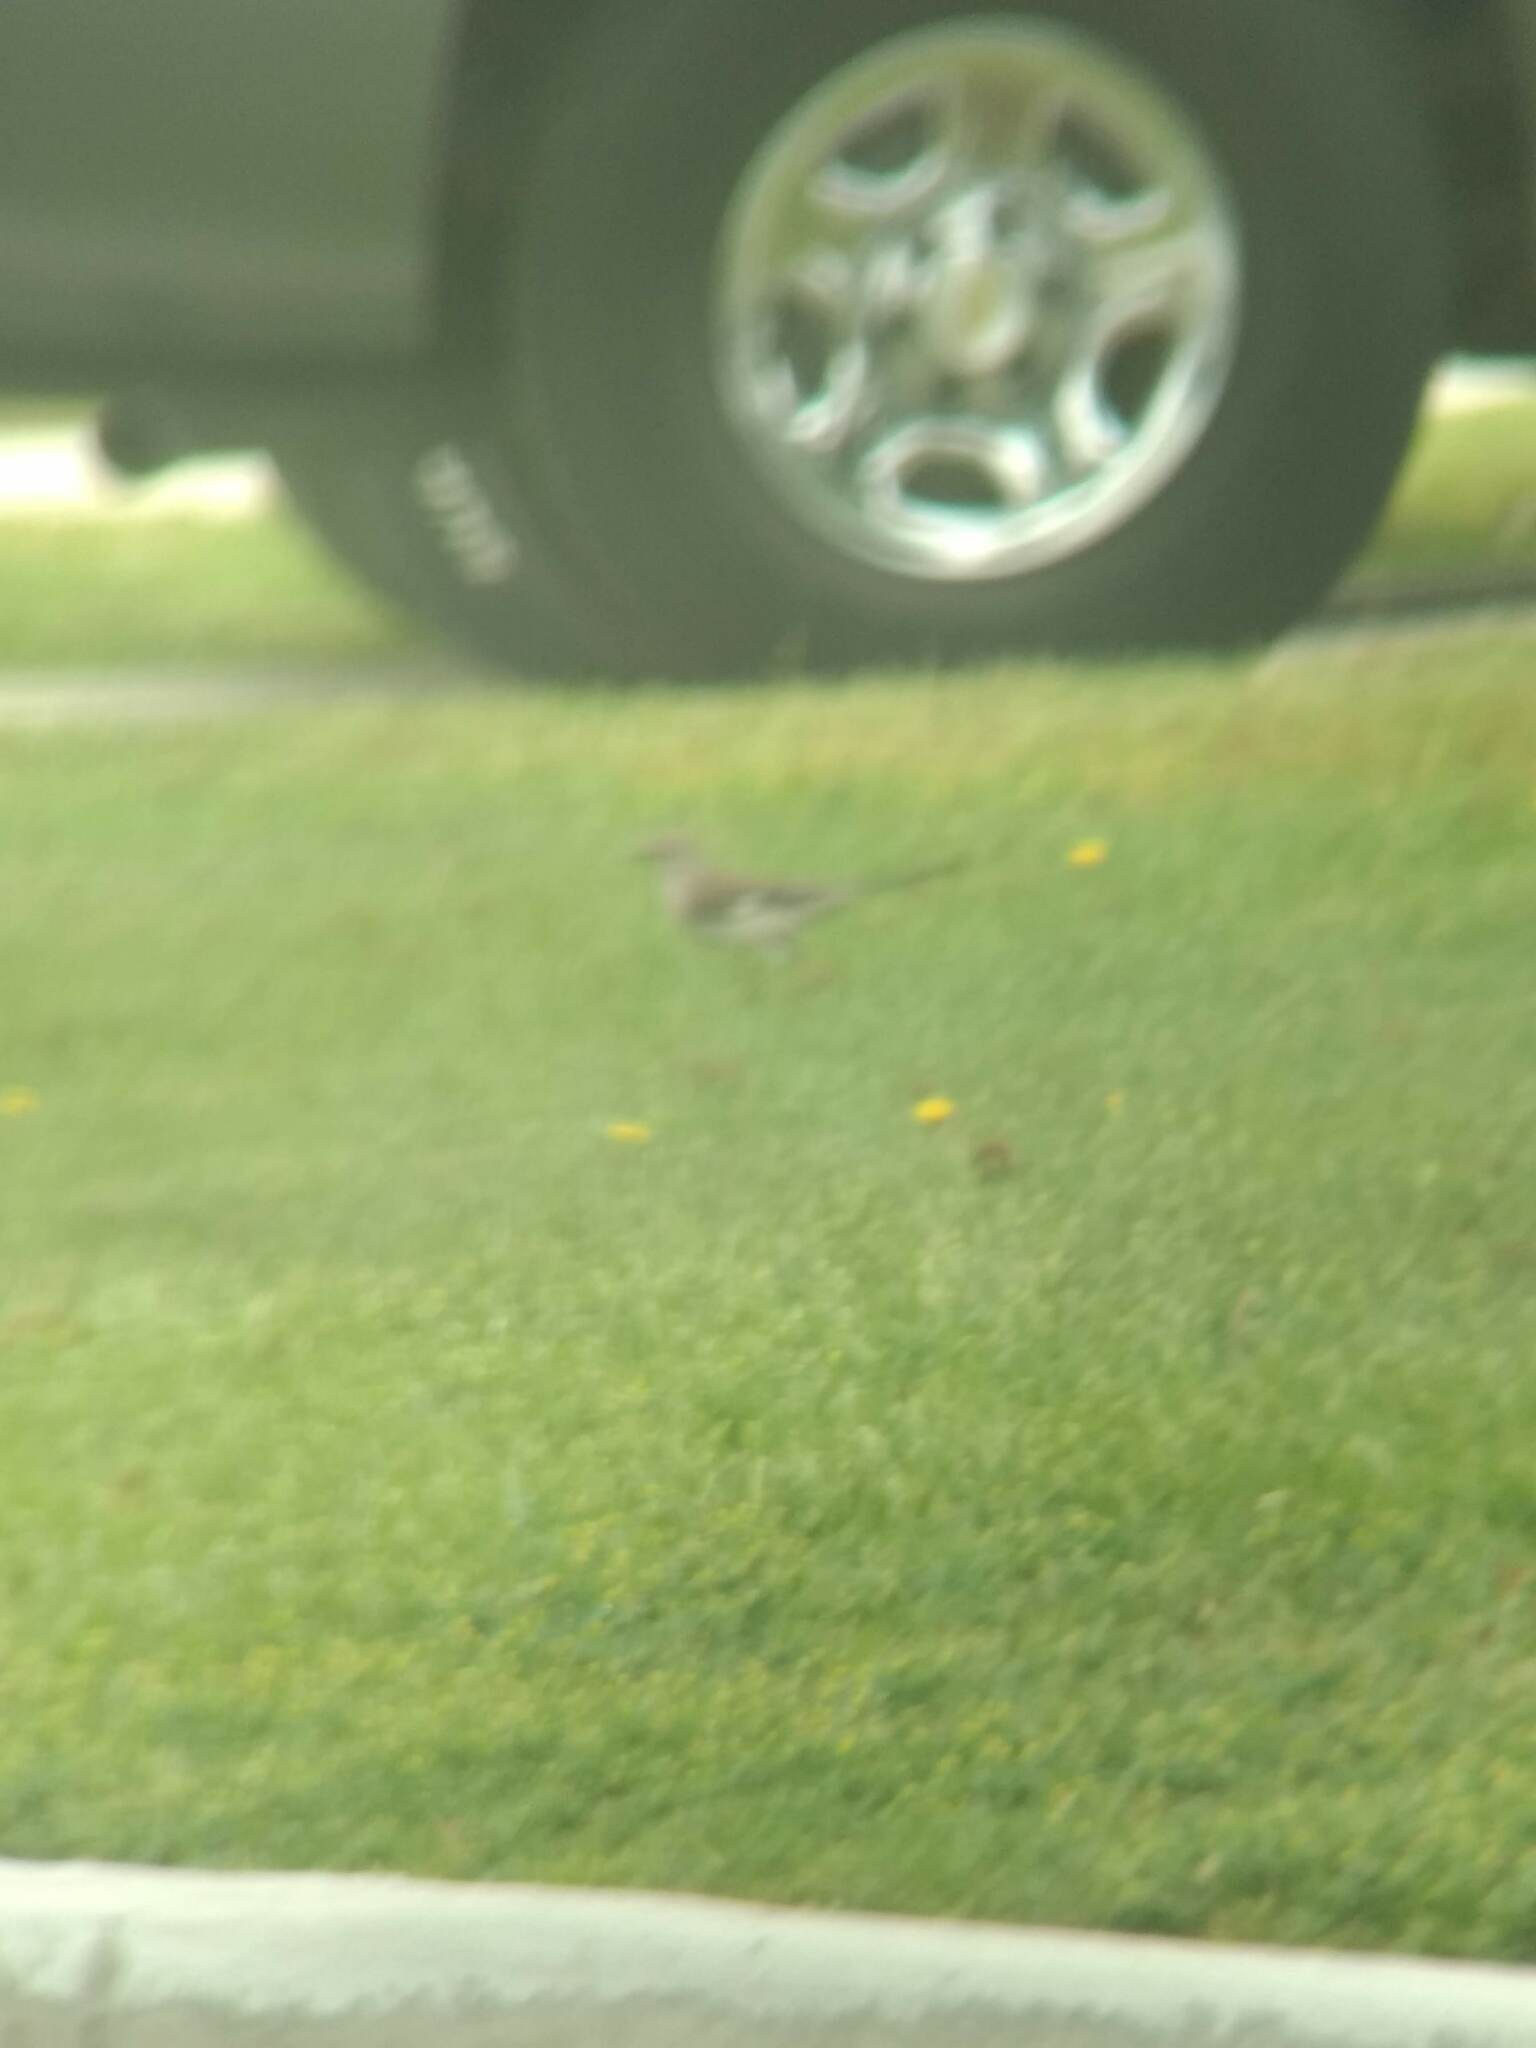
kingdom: Animalia
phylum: Chordata
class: Aves
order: Passeriformes
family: Mimidae
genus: Mimus
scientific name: Mimus polyglottos
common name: Northern mockingbird
